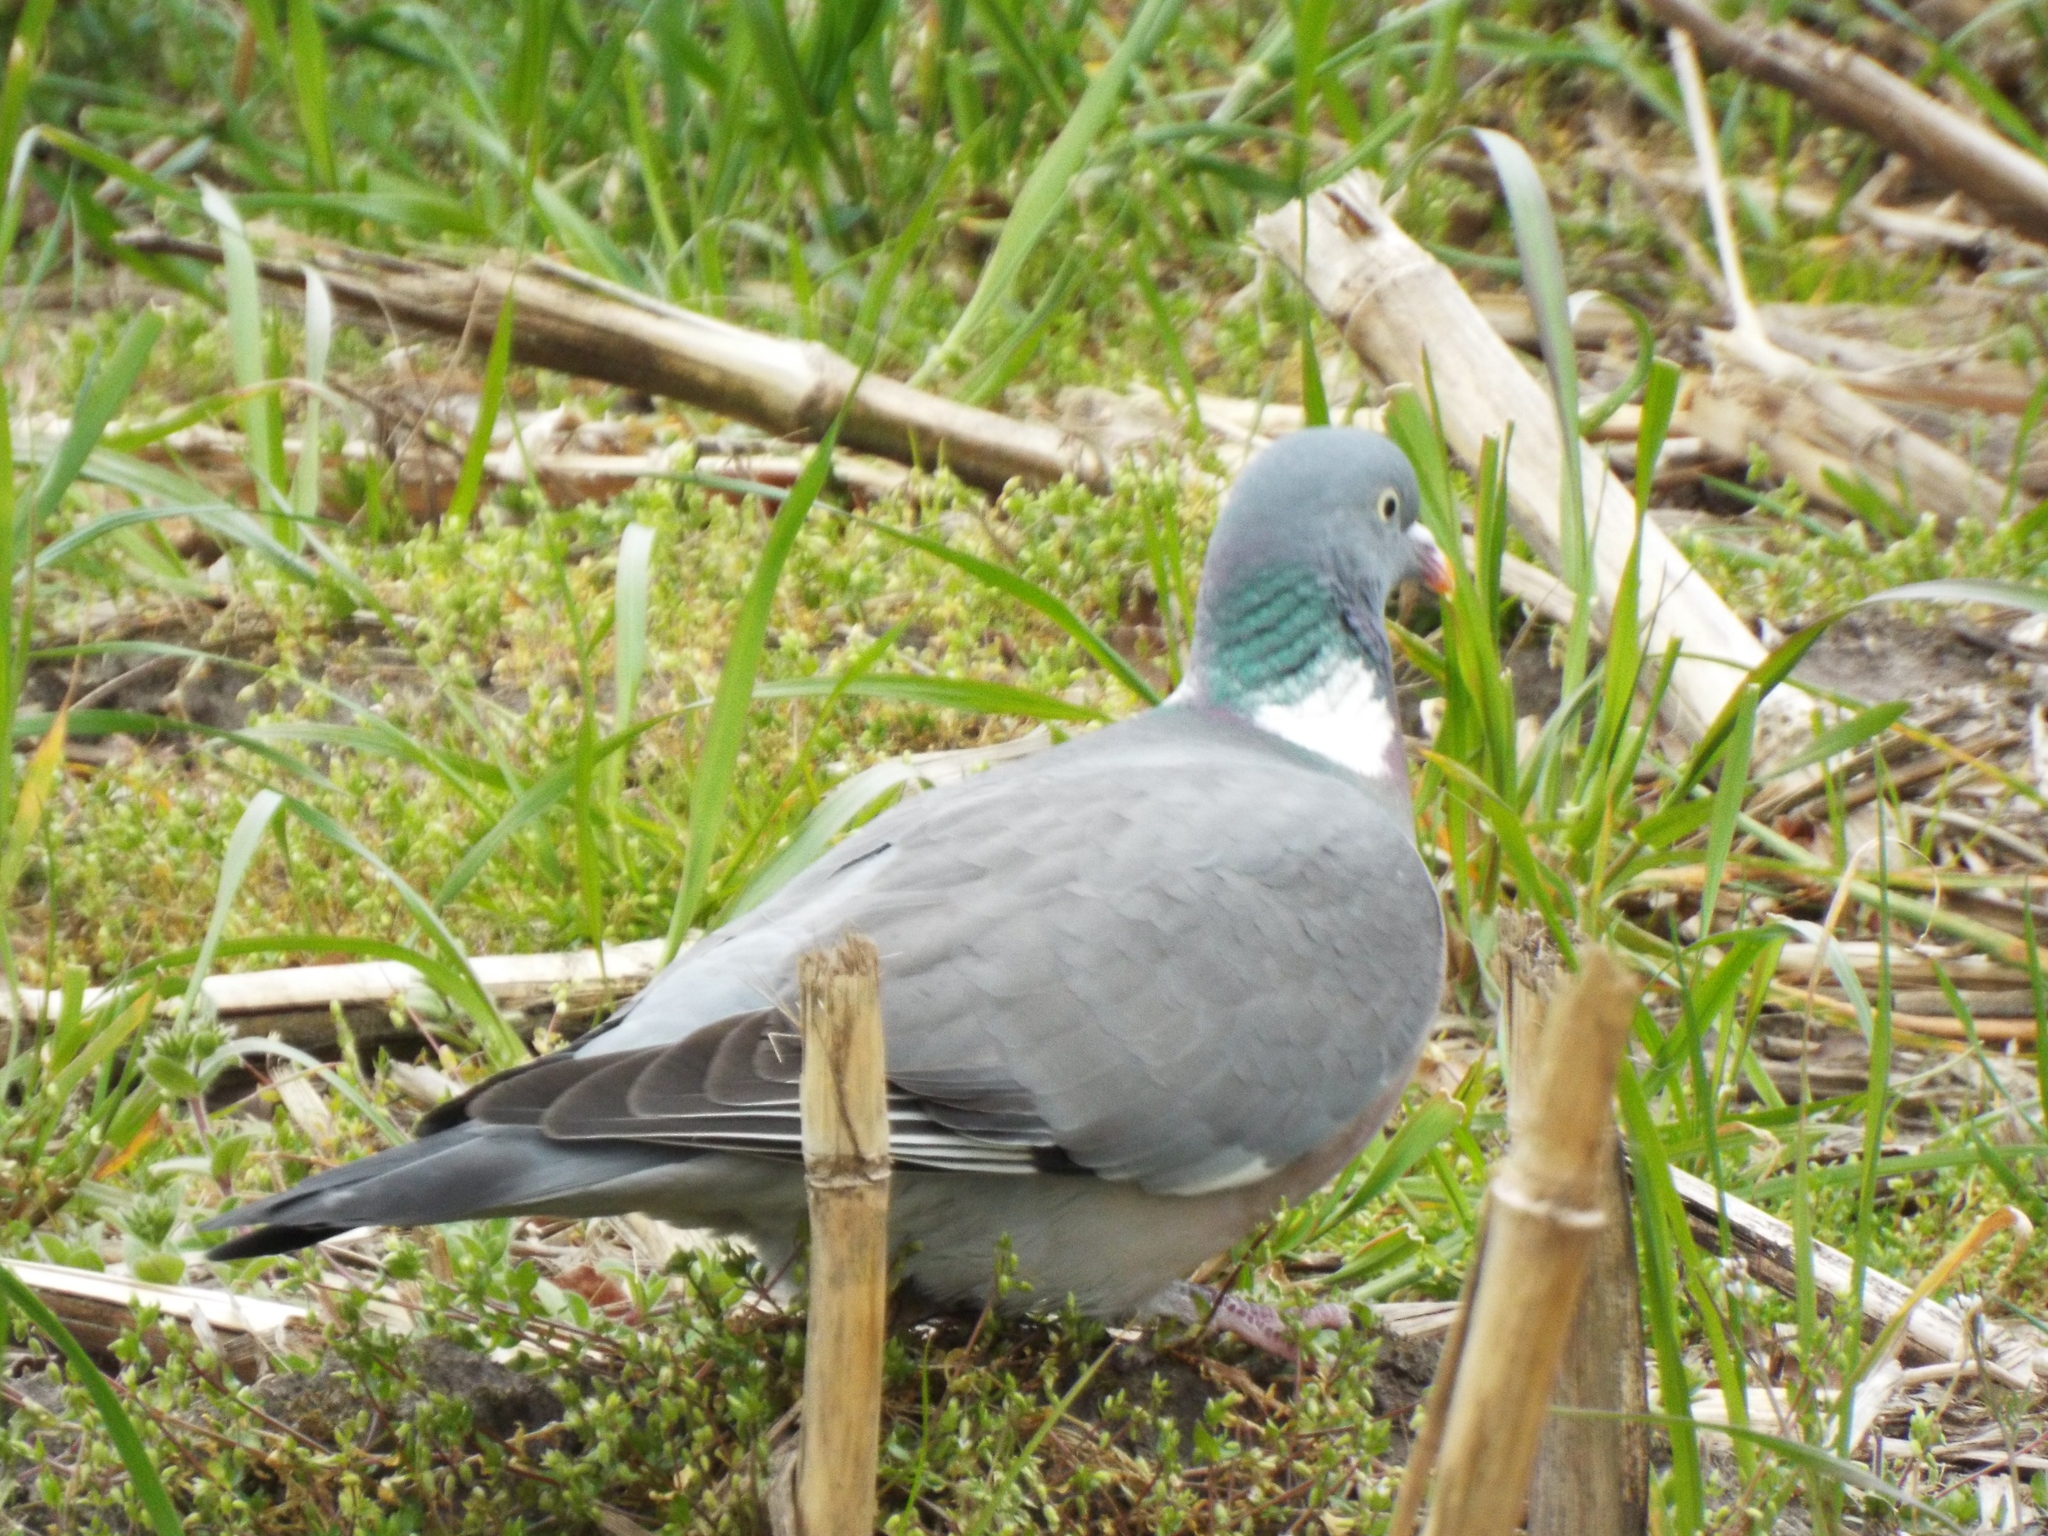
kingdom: Animalia
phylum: Chordata
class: Aves
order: Columbiformes
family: Columbidae
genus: Columba
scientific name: Columba palumbus
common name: Common wood pigeon
